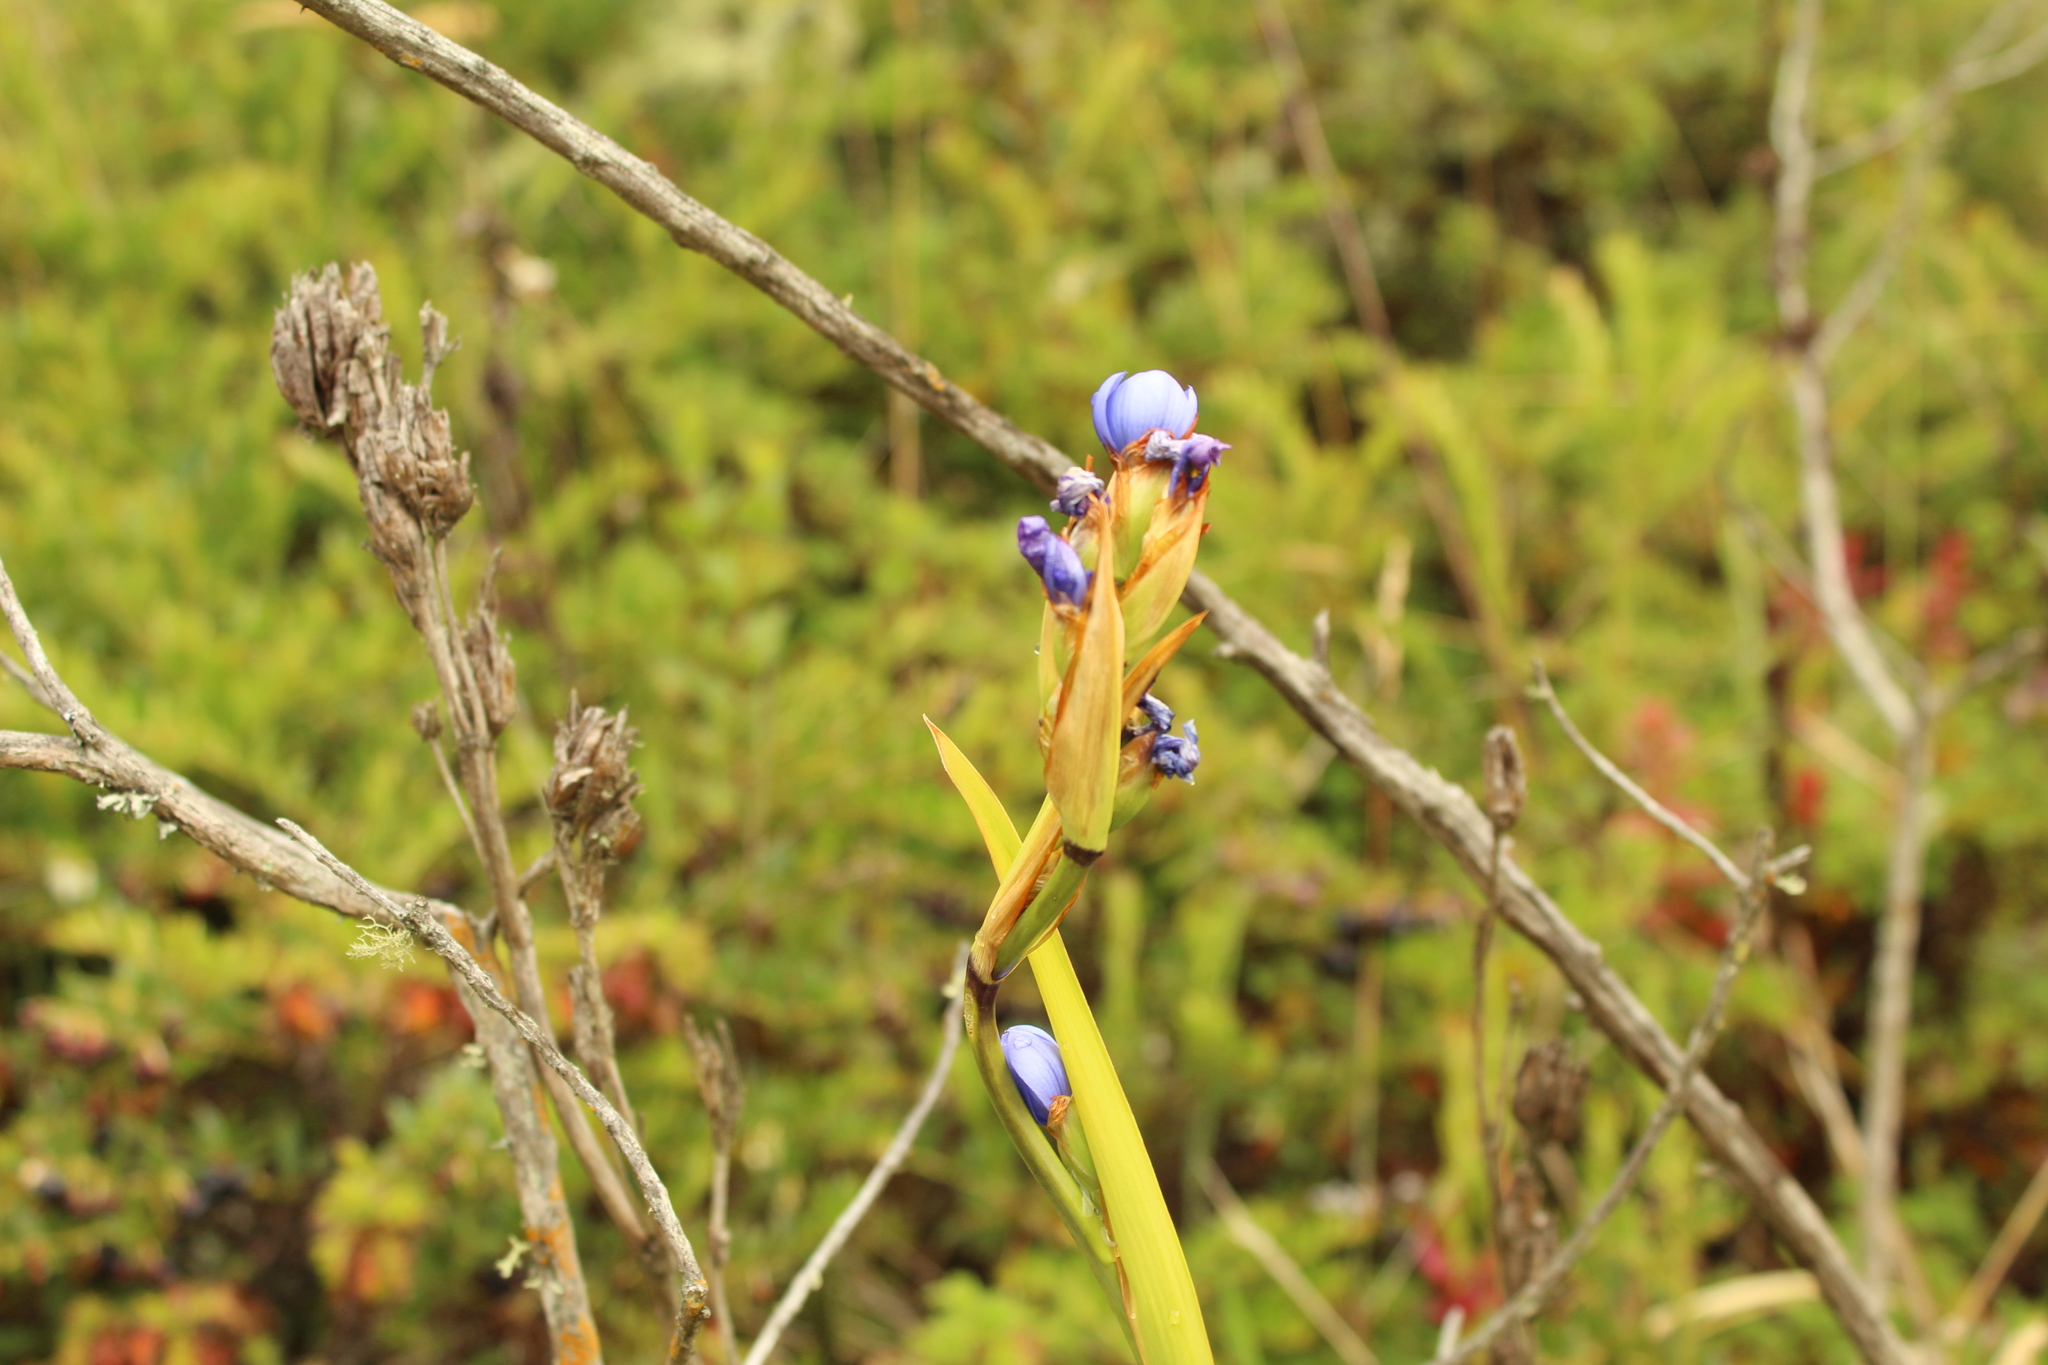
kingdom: Plantae
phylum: Tracheophyta
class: Liliopsida
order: Asparagales
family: Iridaceae
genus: Orthrosanthus
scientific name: Orthrosanthus chimboracensis
